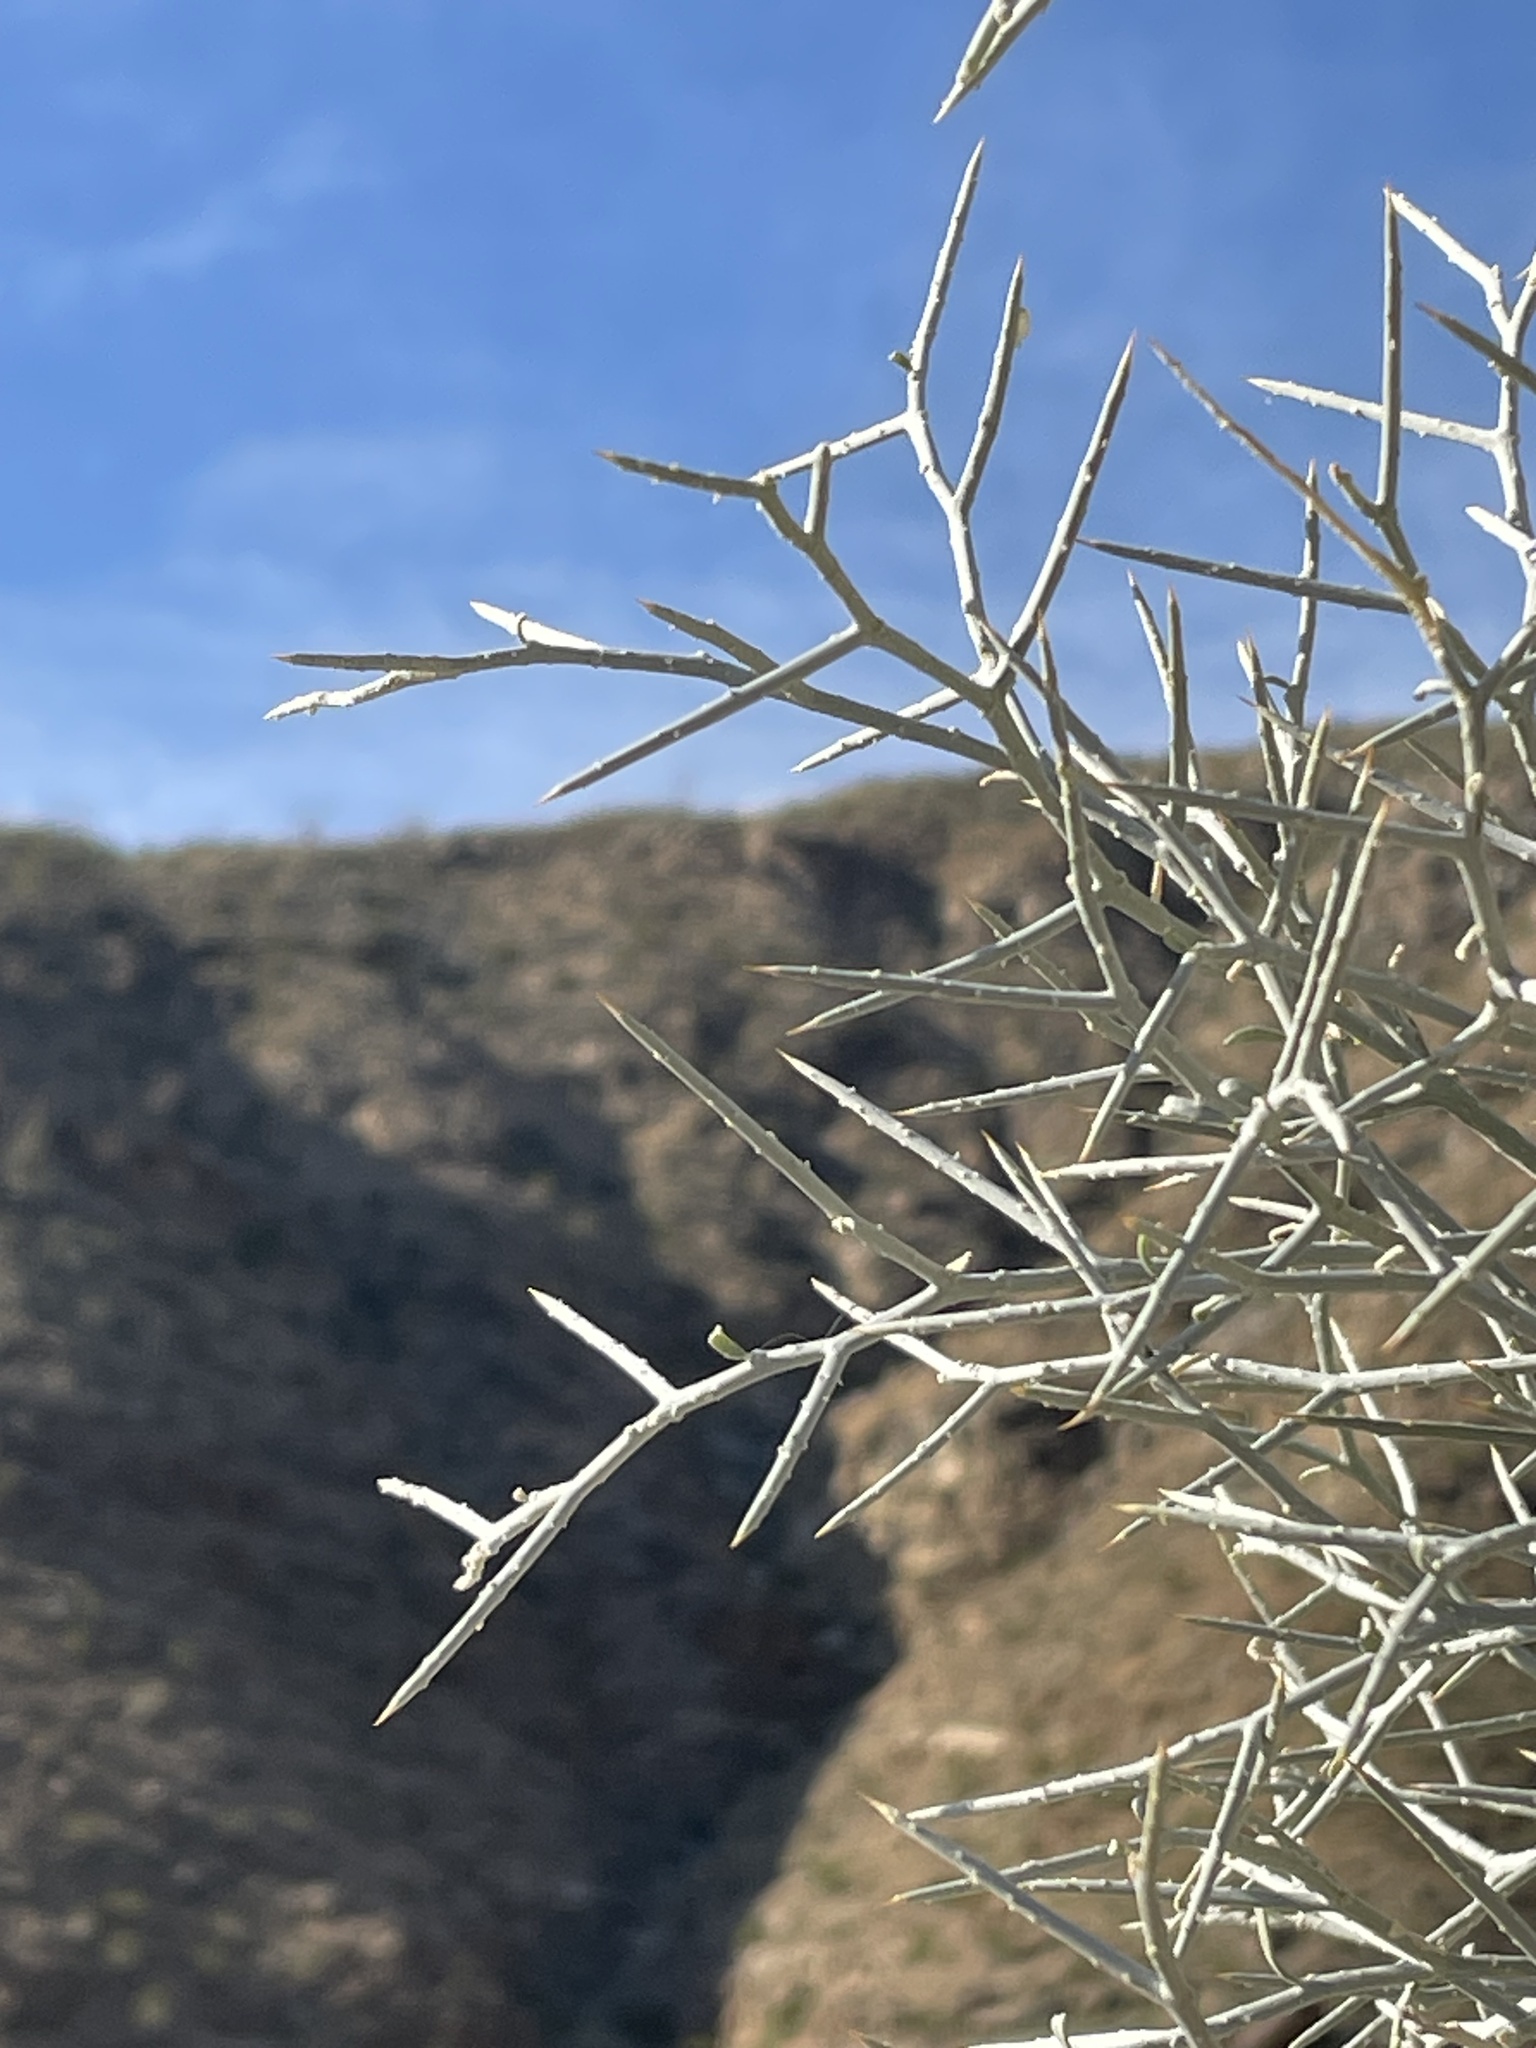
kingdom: Plantae
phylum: Tracheophyta
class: Magnoliopsida
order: Fabales
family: Fabaceae
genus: Psorothamnus
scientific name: Psorothamnus spinosus
